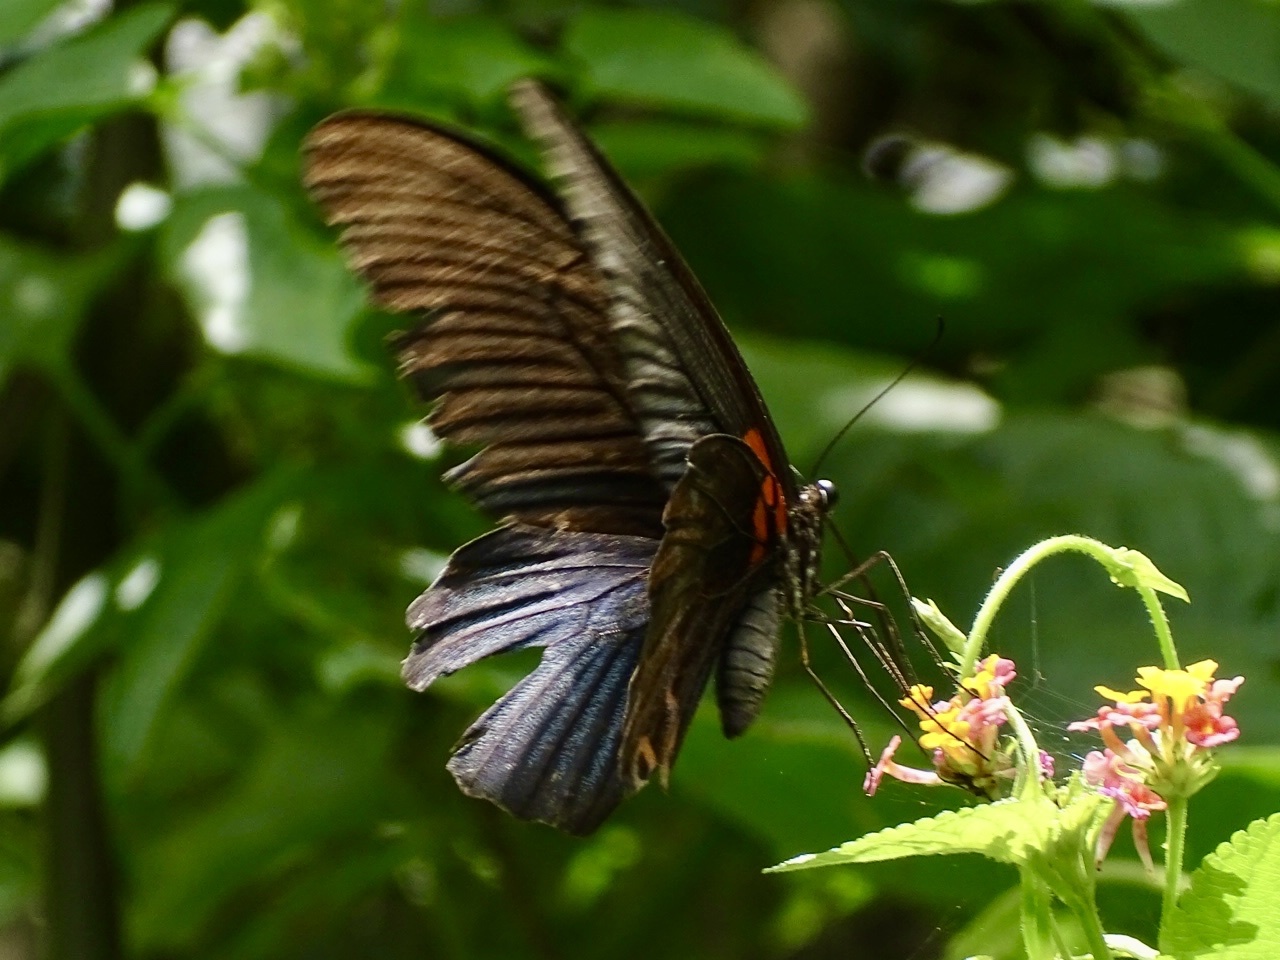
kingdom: Animalia
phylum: Arthropoda
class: Insecta
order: Lepidoptera
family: Papilionidae
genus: Papilio
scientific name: Papilio memnon
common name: Great mormon
